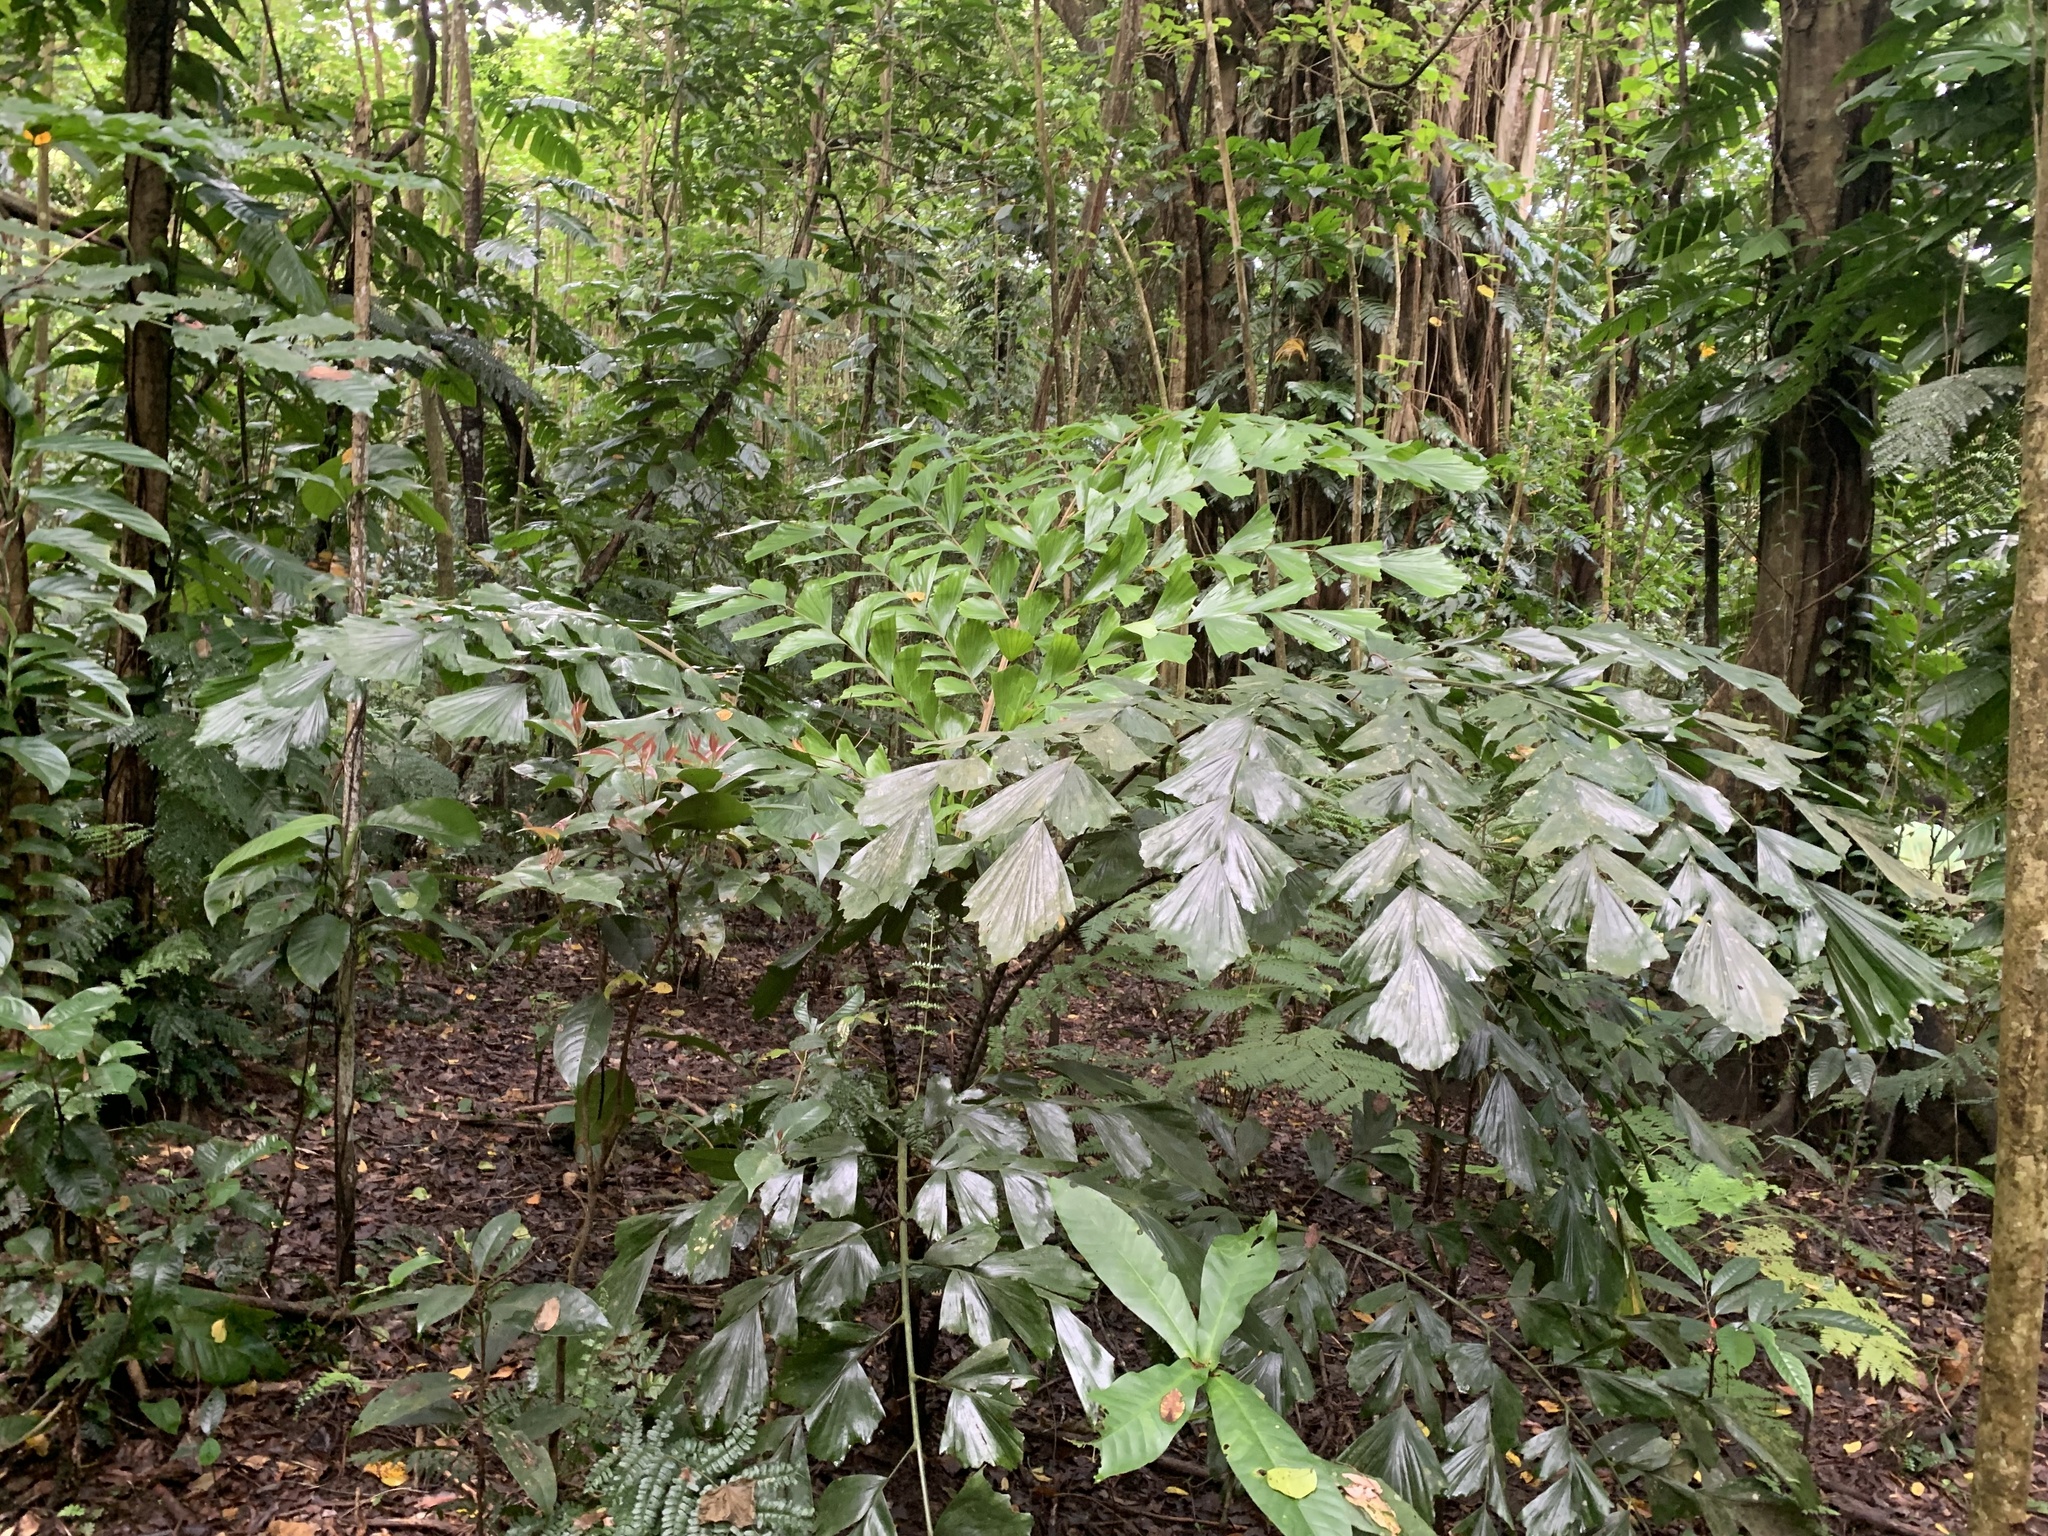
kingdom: Plantae
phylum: Tracheophyta
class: Liliopsida
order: Arecales
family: Arecaceae
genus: Caryota
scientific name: Caryota ophiopellis
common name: Snake palm
